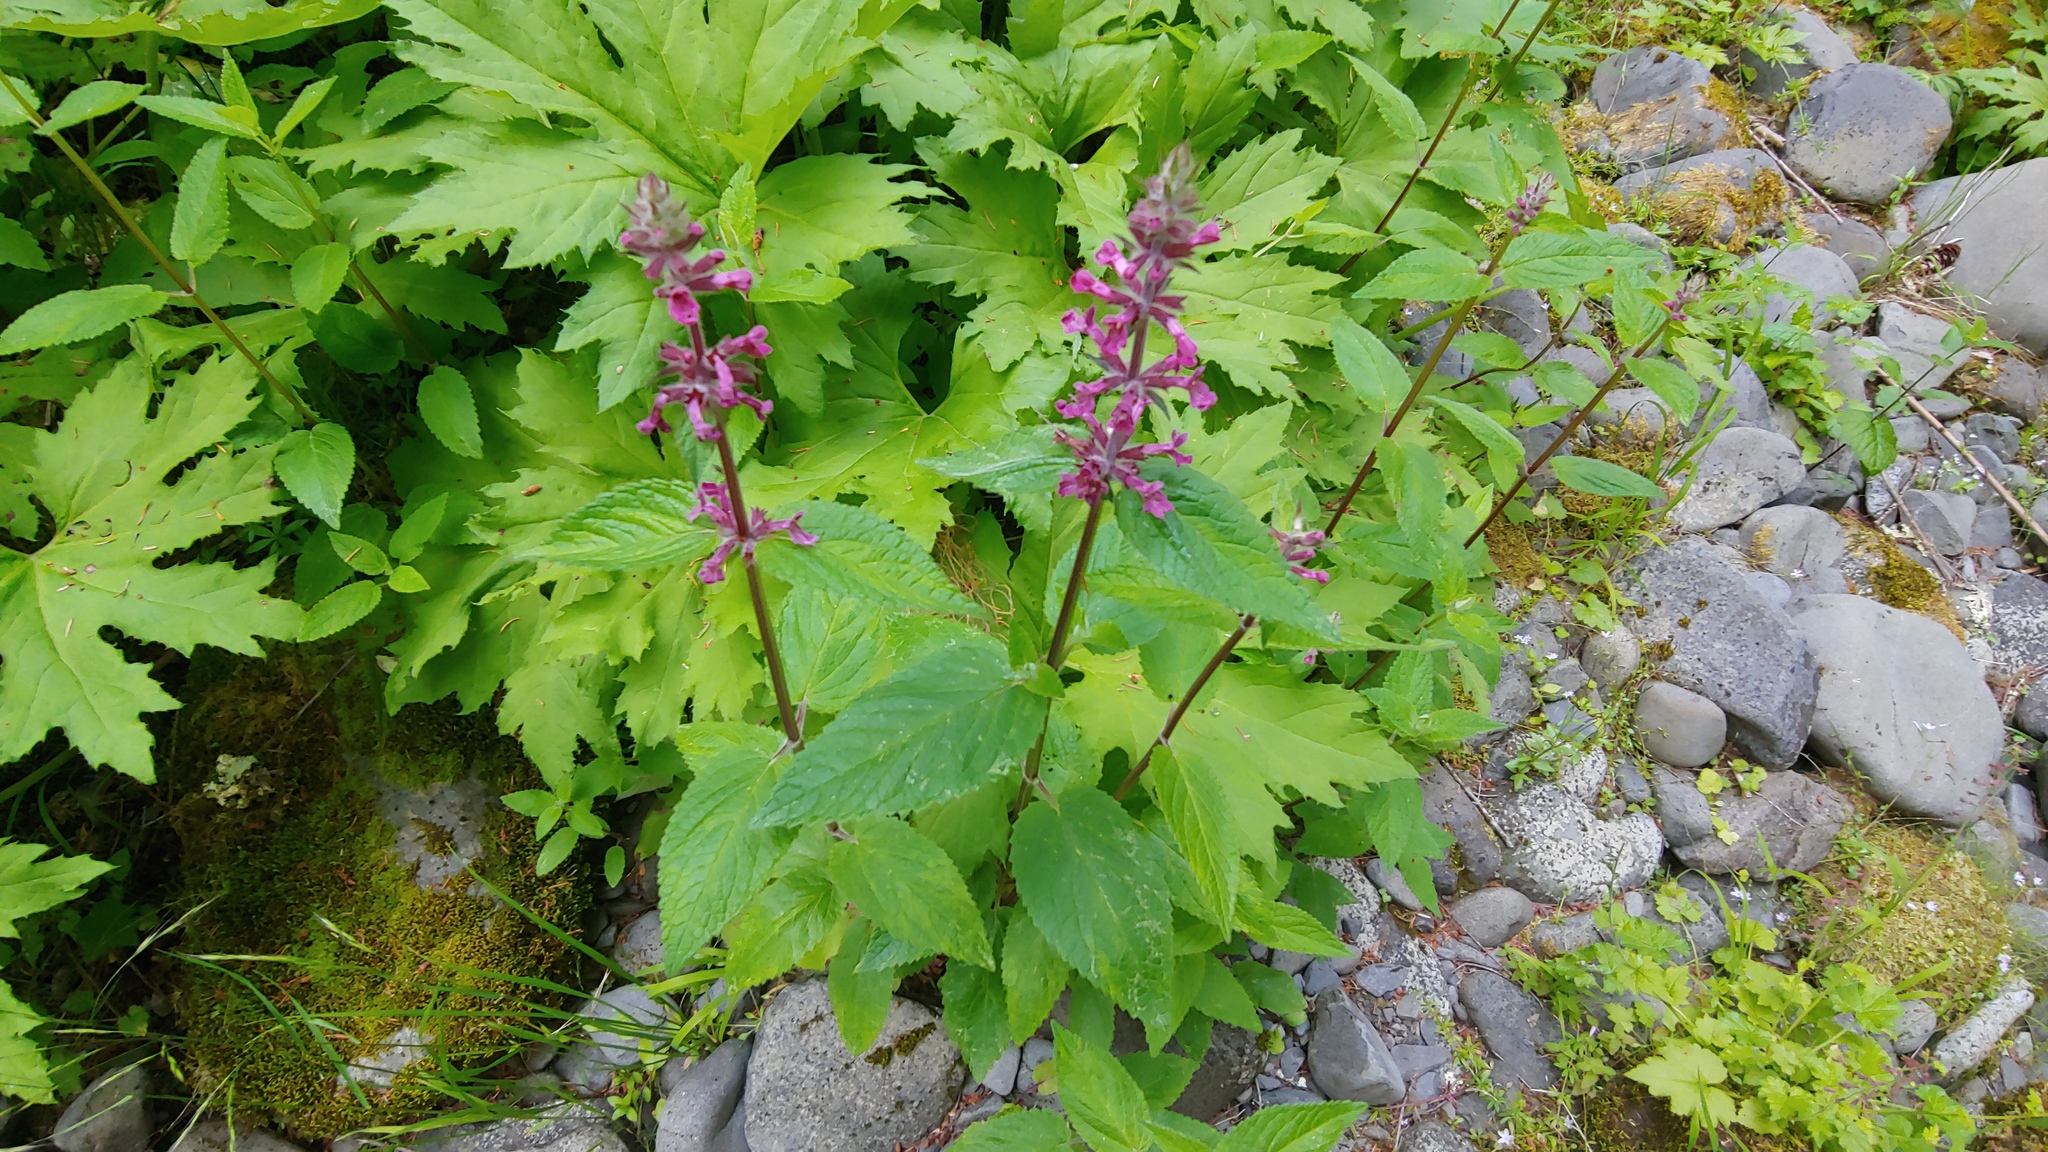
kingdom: Plantae
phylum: Tracheophyta
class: Magnoliopsida
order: Lamiales
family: Lamiaceae
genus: Stachys
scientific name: Stachys chamissonis
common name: Coastal hedge-nettle
